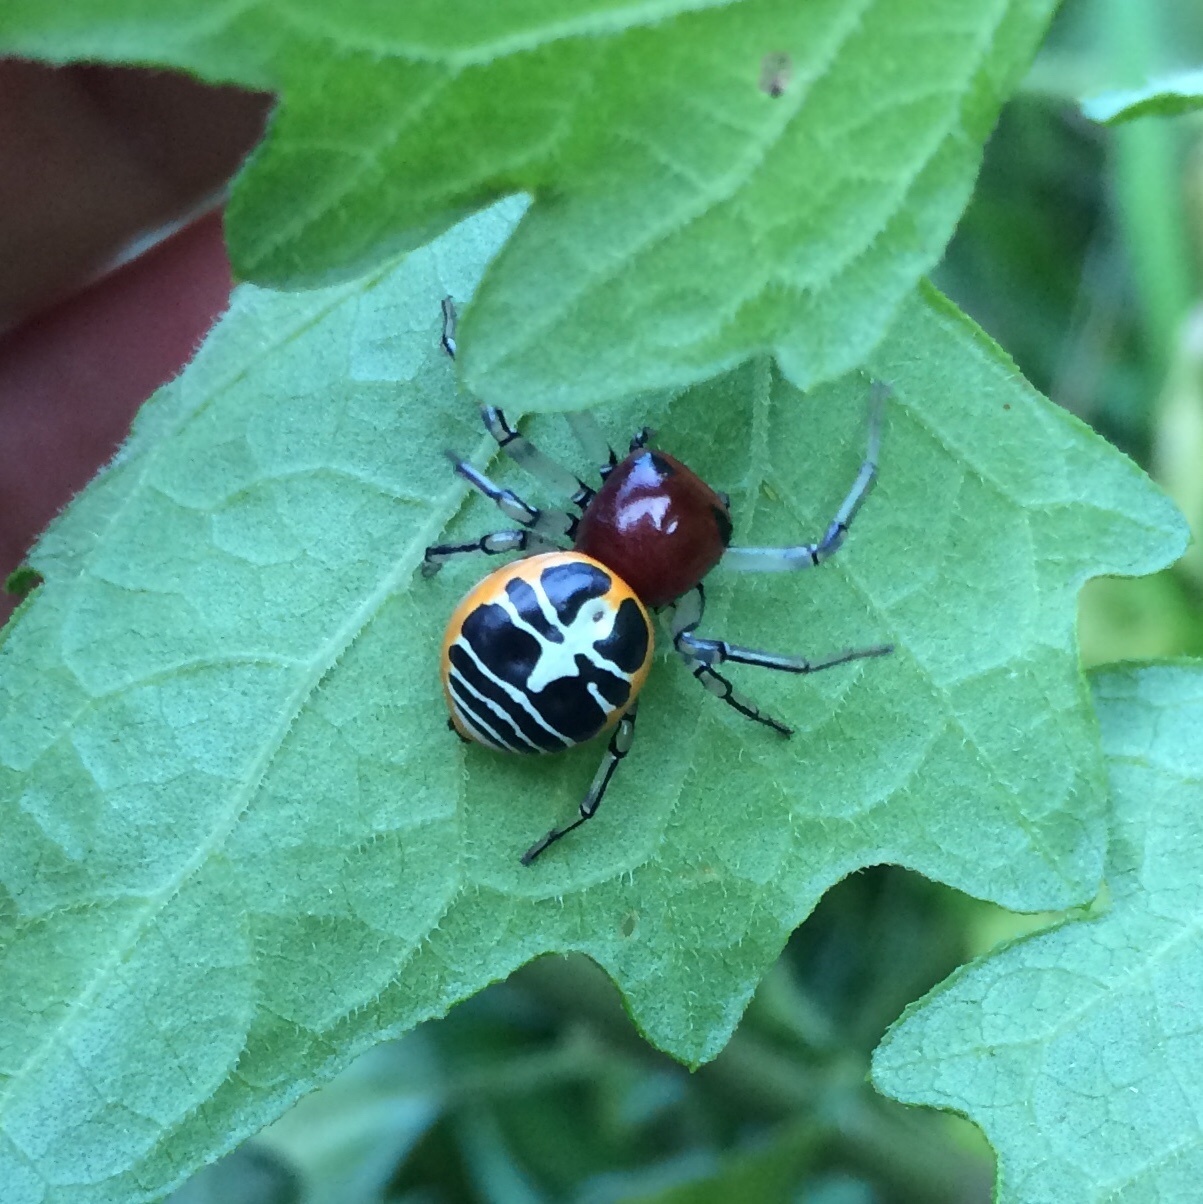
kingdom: Animalia
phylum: Arthropoda
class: Arachnida
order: Araneae
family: Thomisidae
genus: Camaricus
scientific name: Camaricus nigrotesselatus
